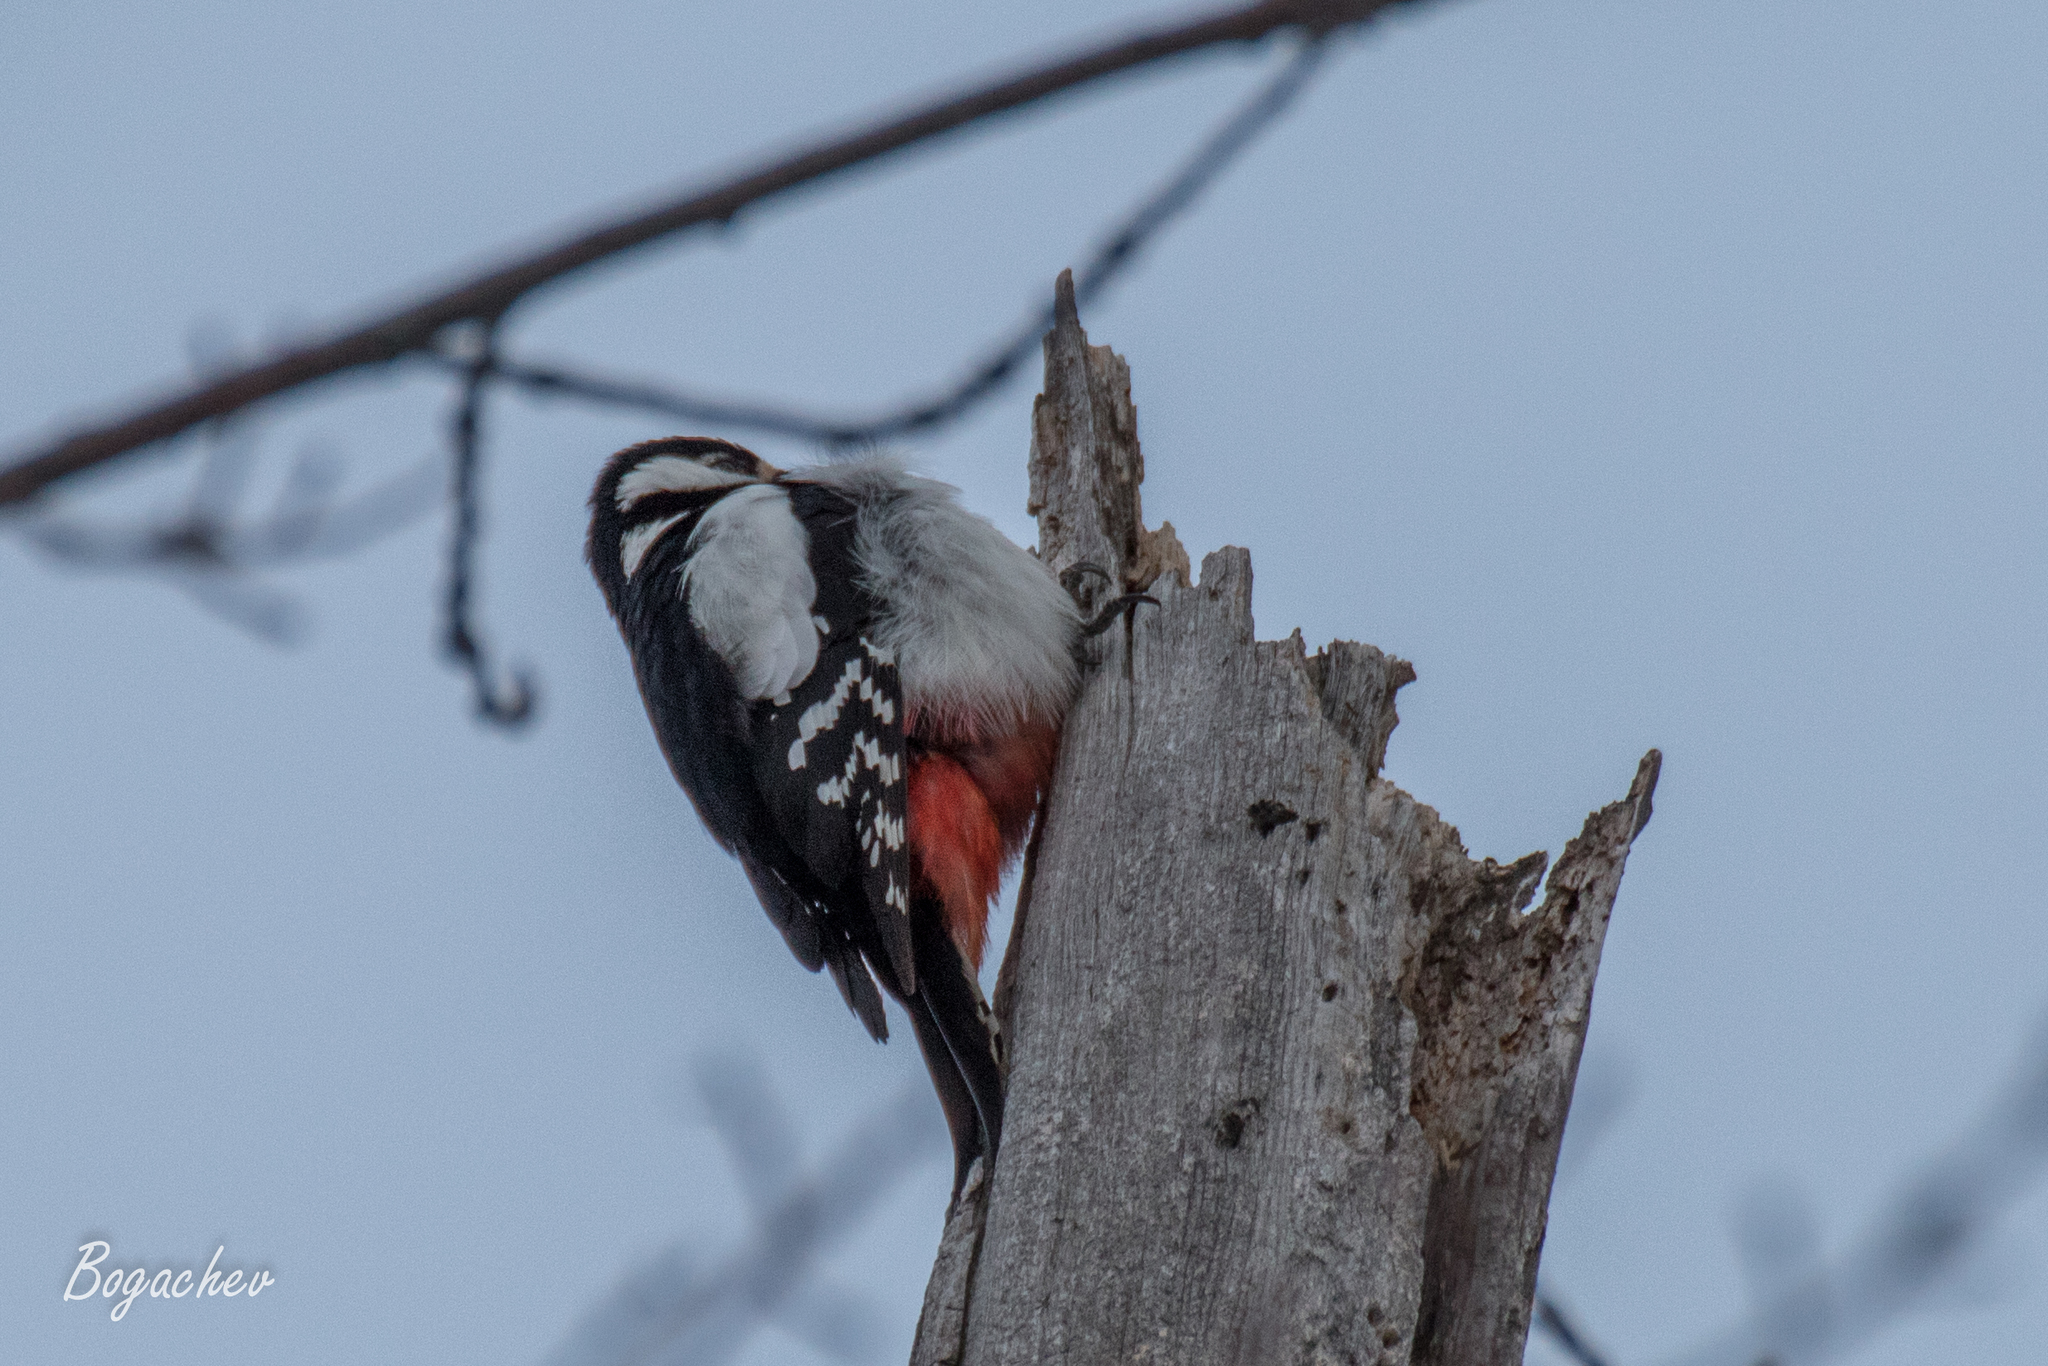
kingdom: Animalia
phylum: Chordata
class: Aves
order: Piciformes
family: Picidae
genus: Dendrocopos
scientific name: Dendrocopos major
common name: Great spotted woodpecker
